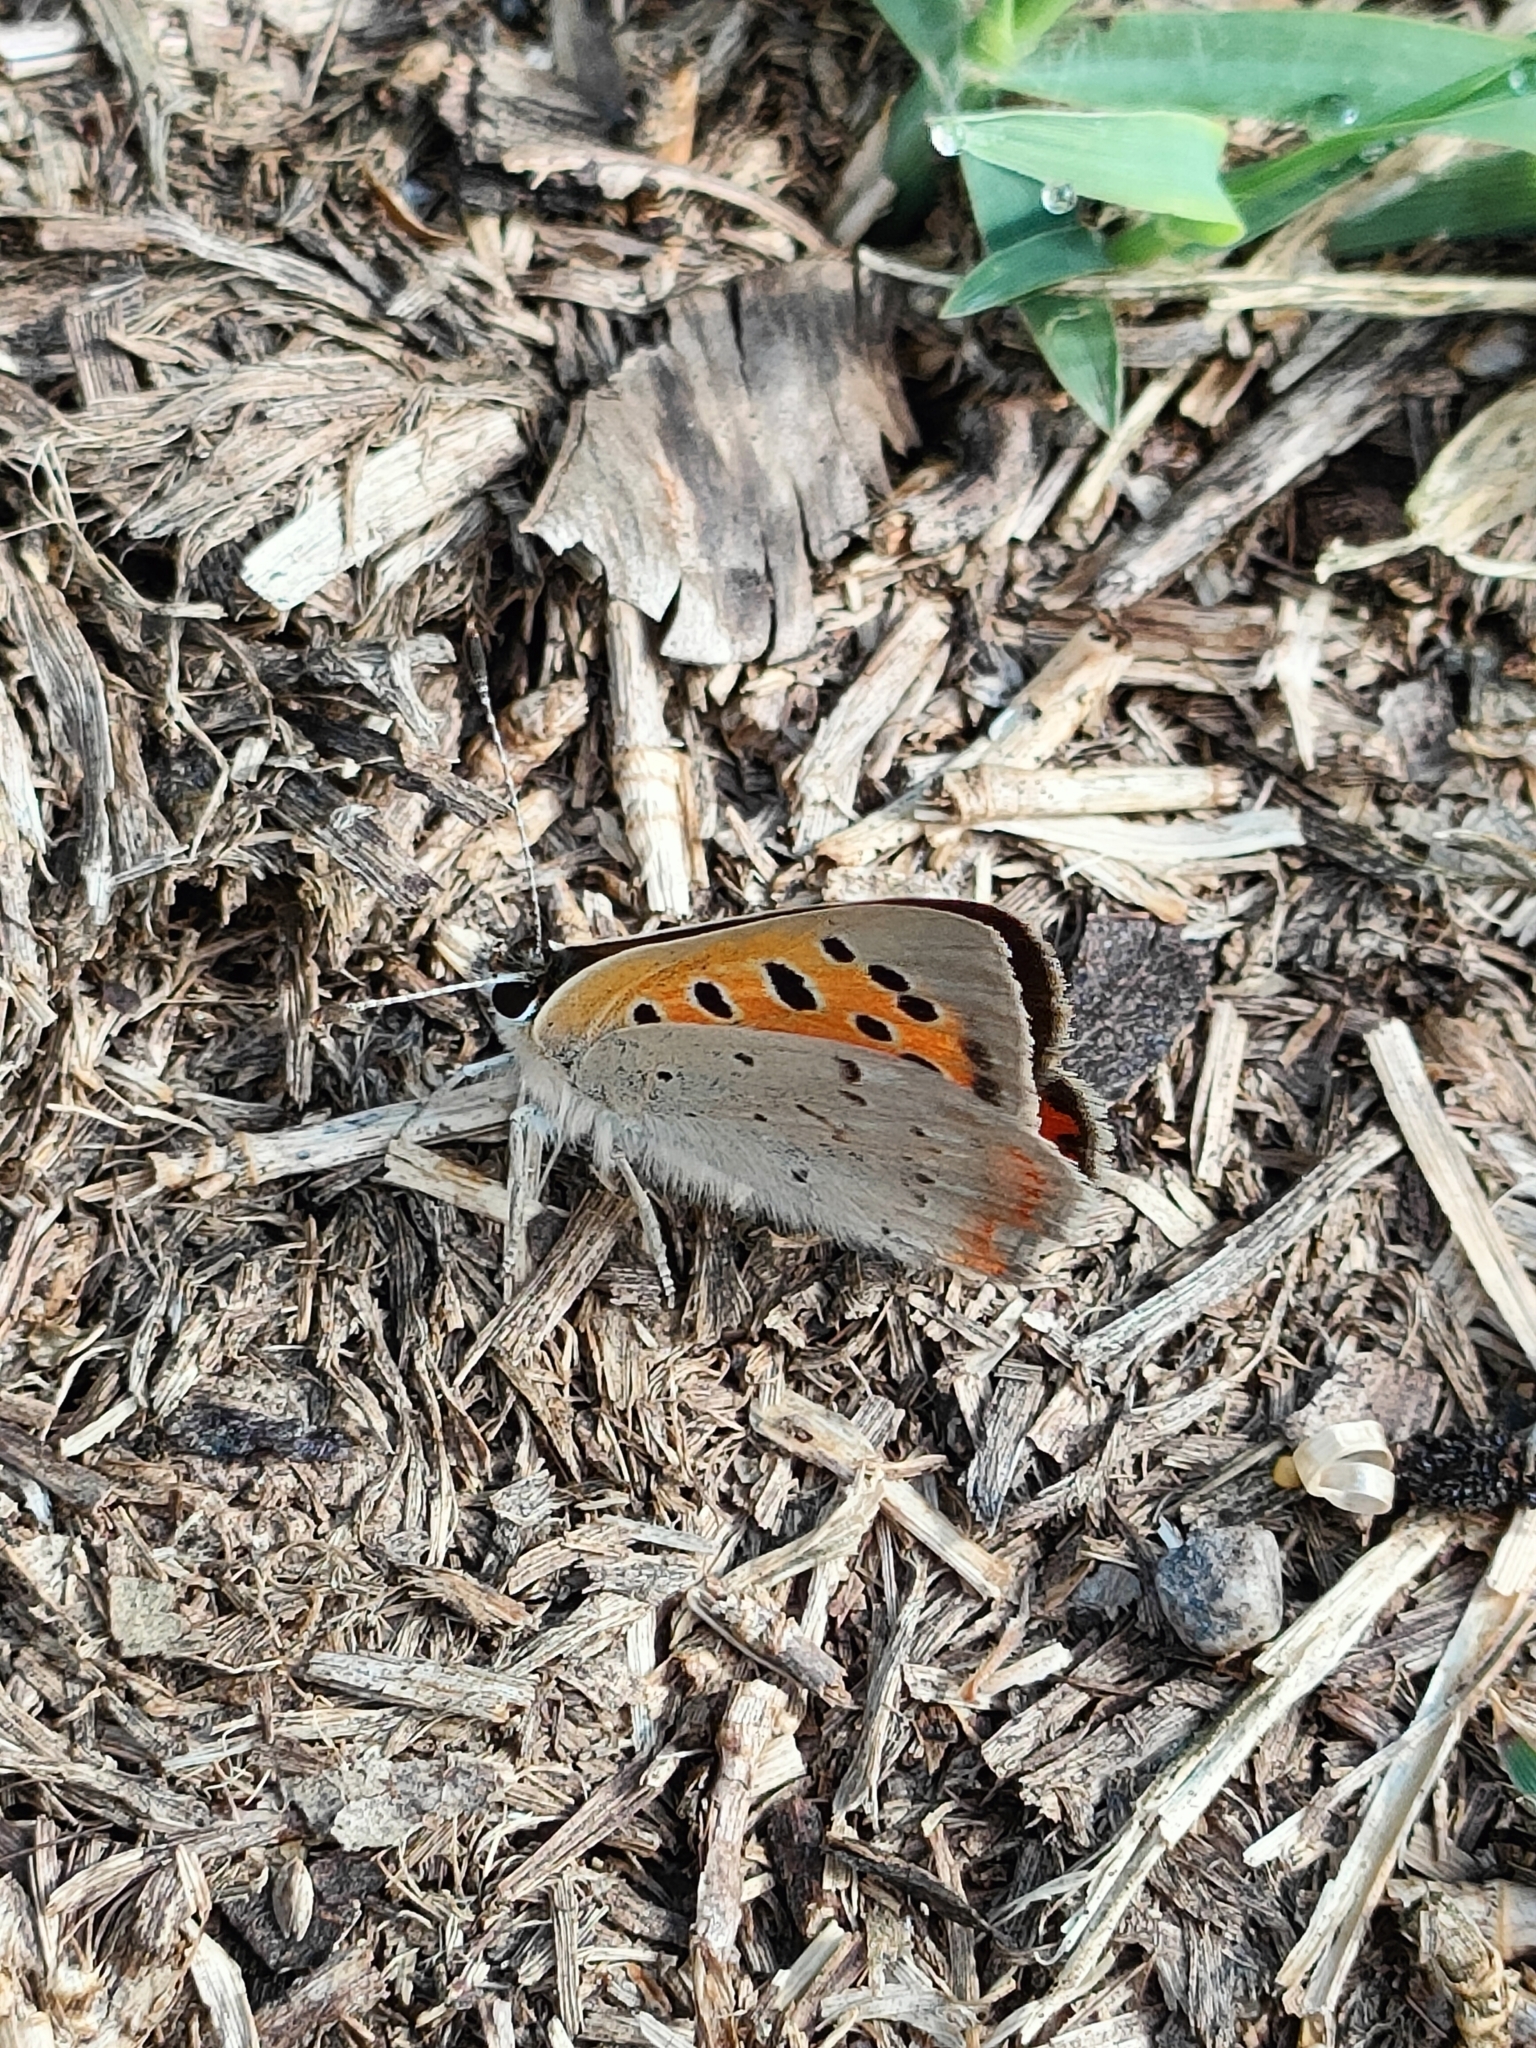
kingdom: Animalia
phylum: Arthropoda
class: Insecta
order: Lepidoptera
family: Lycaenidae
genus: Lycaena
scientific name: Lycaena phlaeas
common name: Small copper
